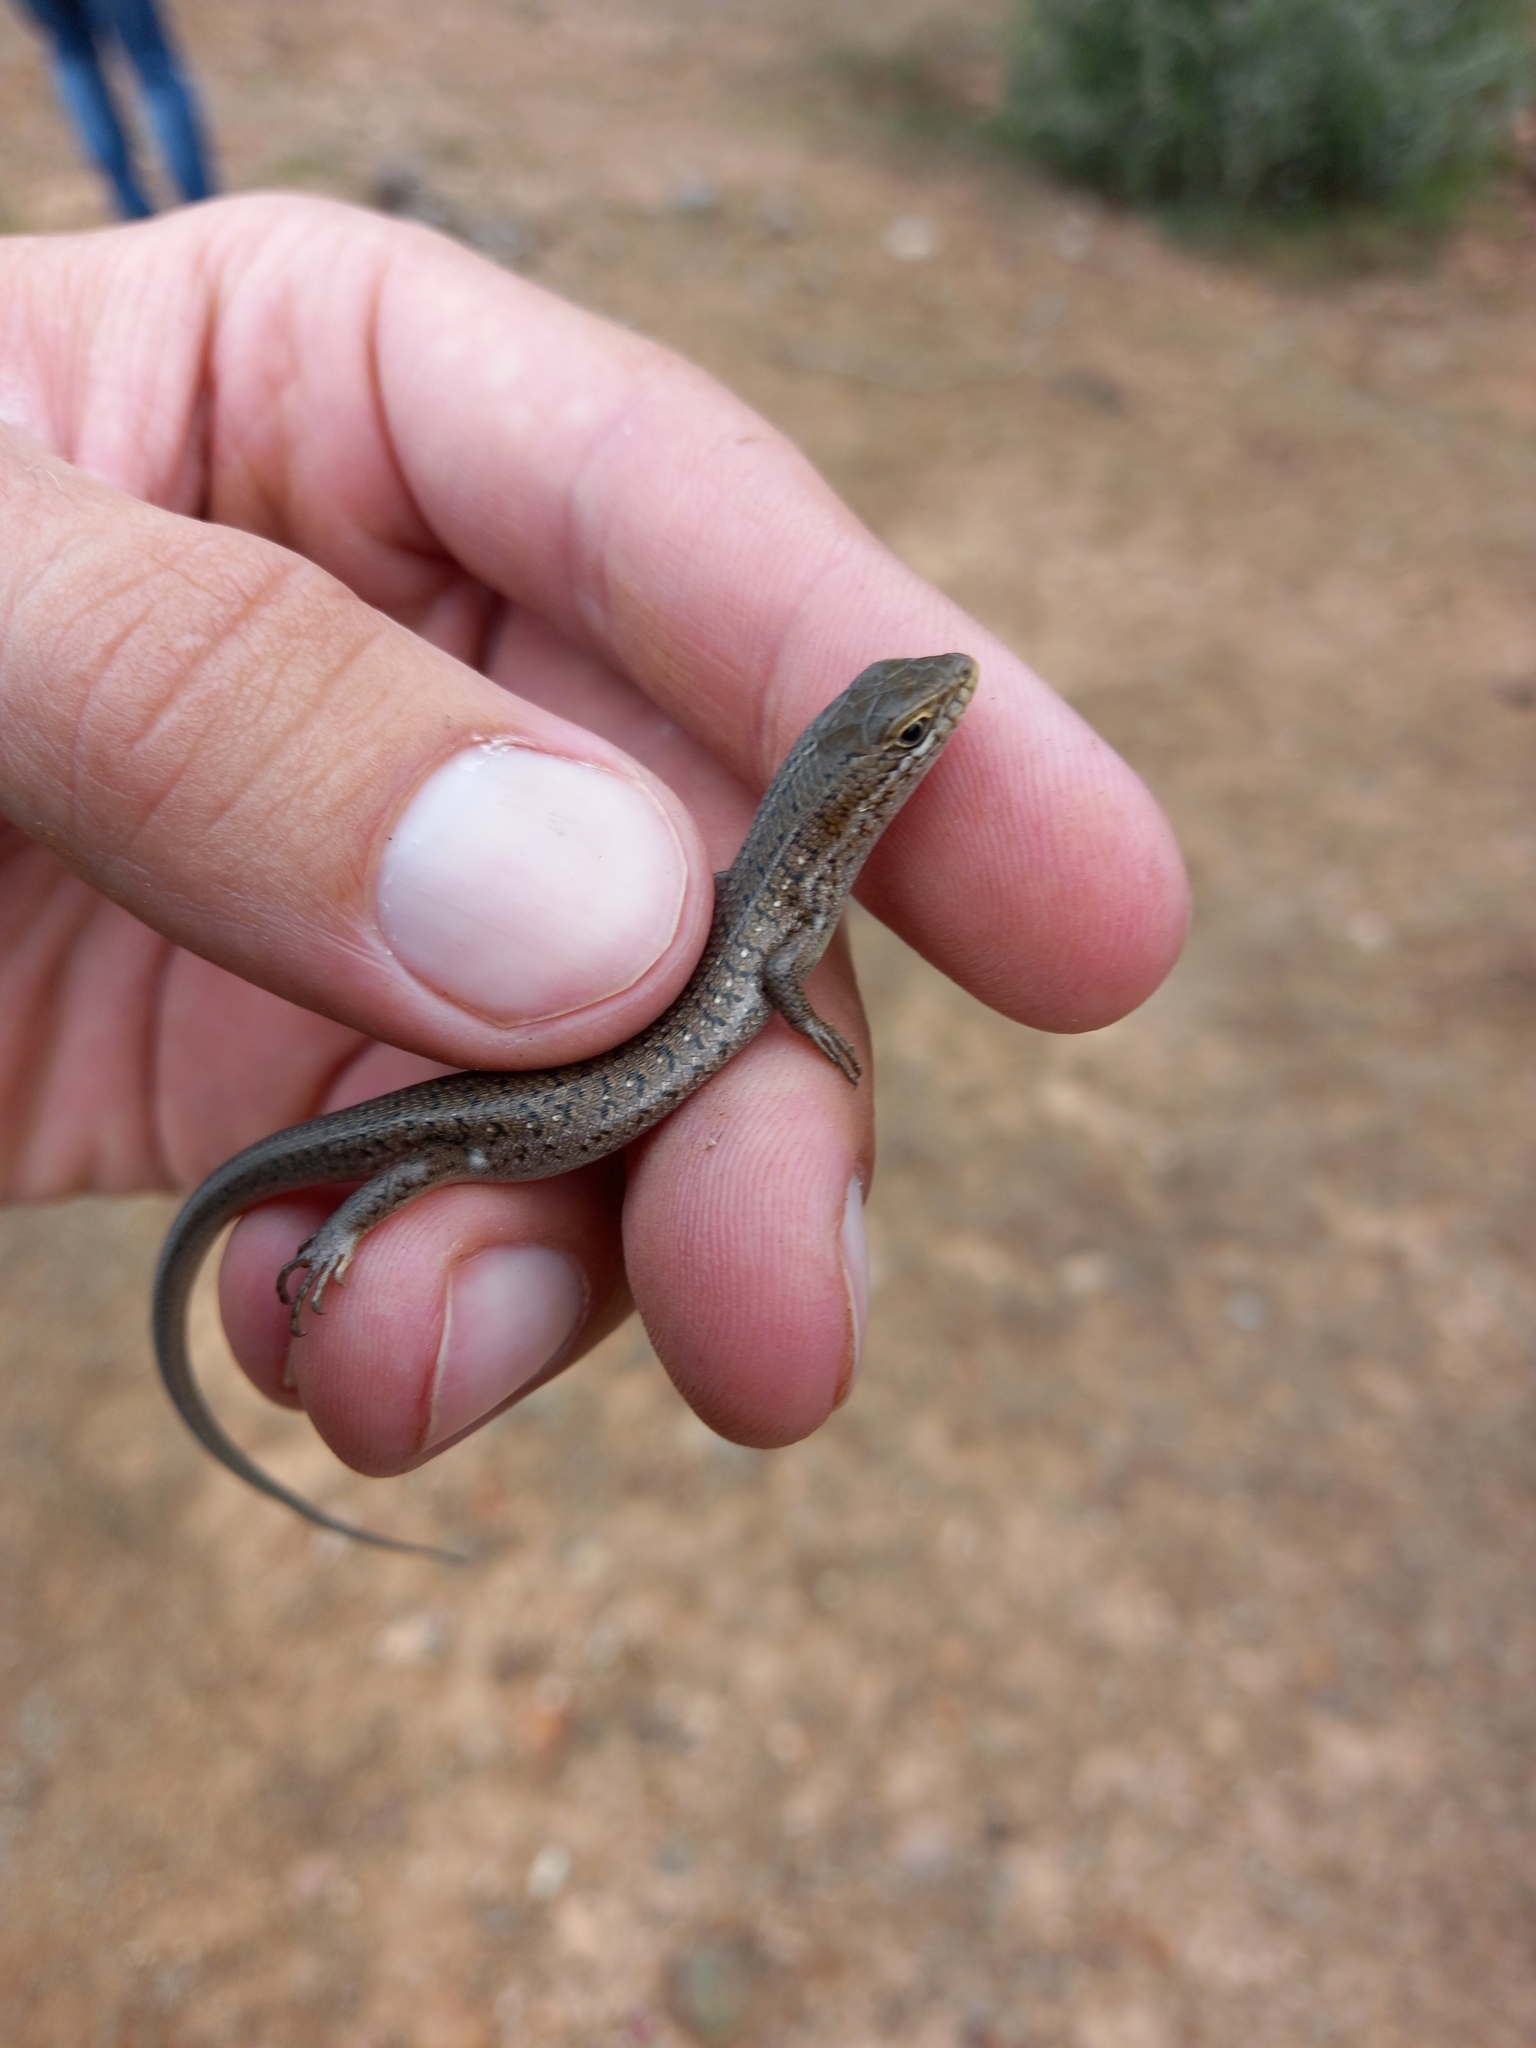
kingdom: Animalia
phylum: Chordata
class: Squamata
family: Scincidae
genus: Trachylepis
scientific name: Trachylepis capensis
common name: Cape skink
